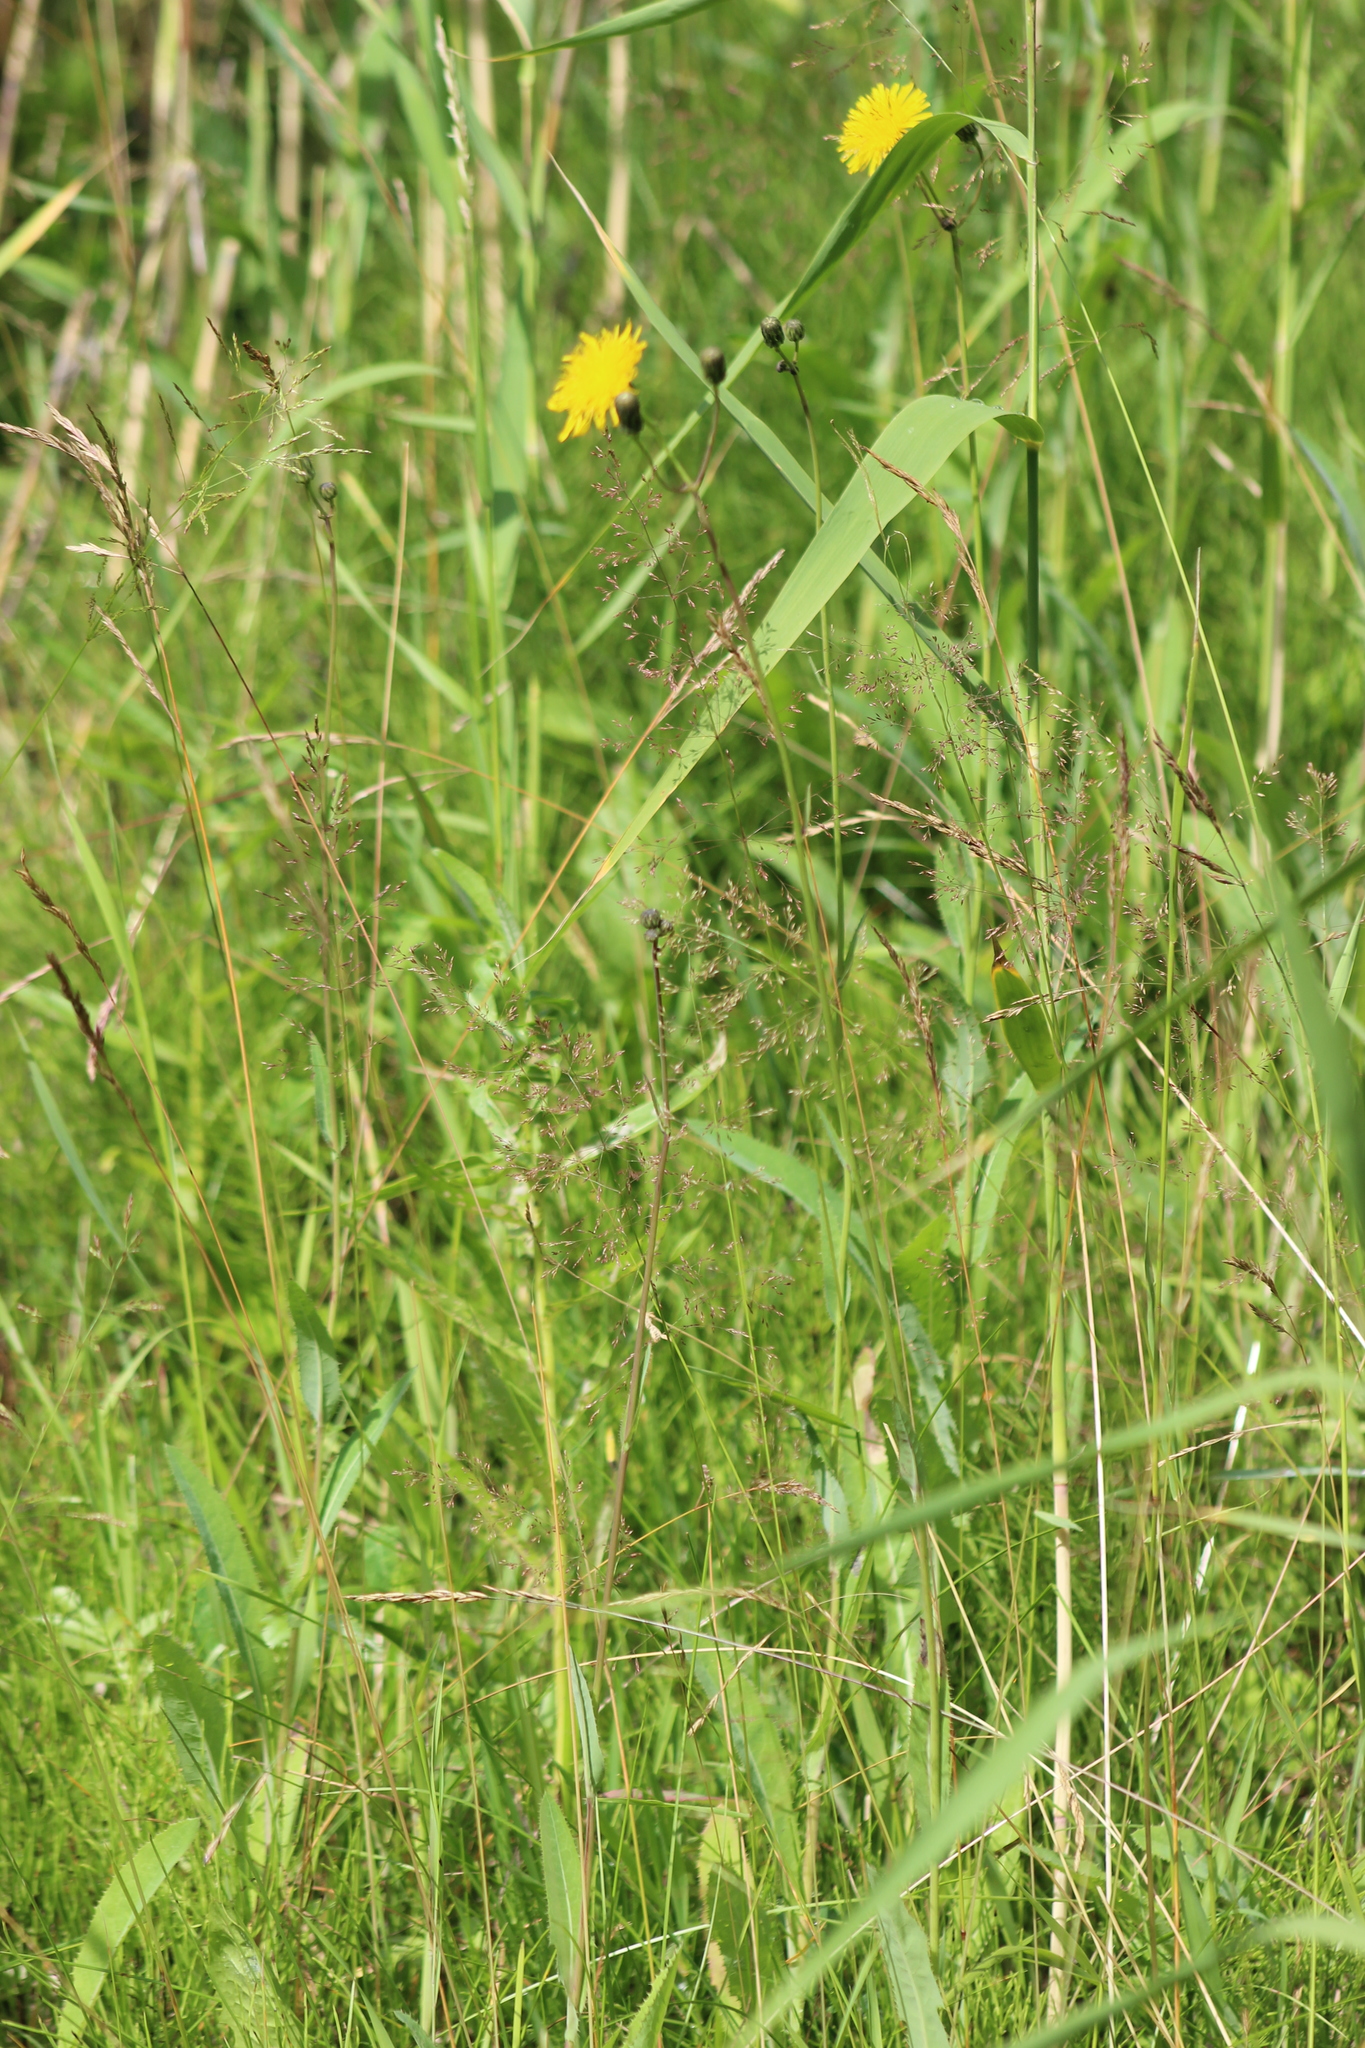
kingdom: Plantae
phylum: Tracheophyta
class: Magnoliopsida
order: Asterales
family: Asteraceae
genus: Sonchus
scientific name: Sonchus arvensis
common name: Perennial sow-thistle
